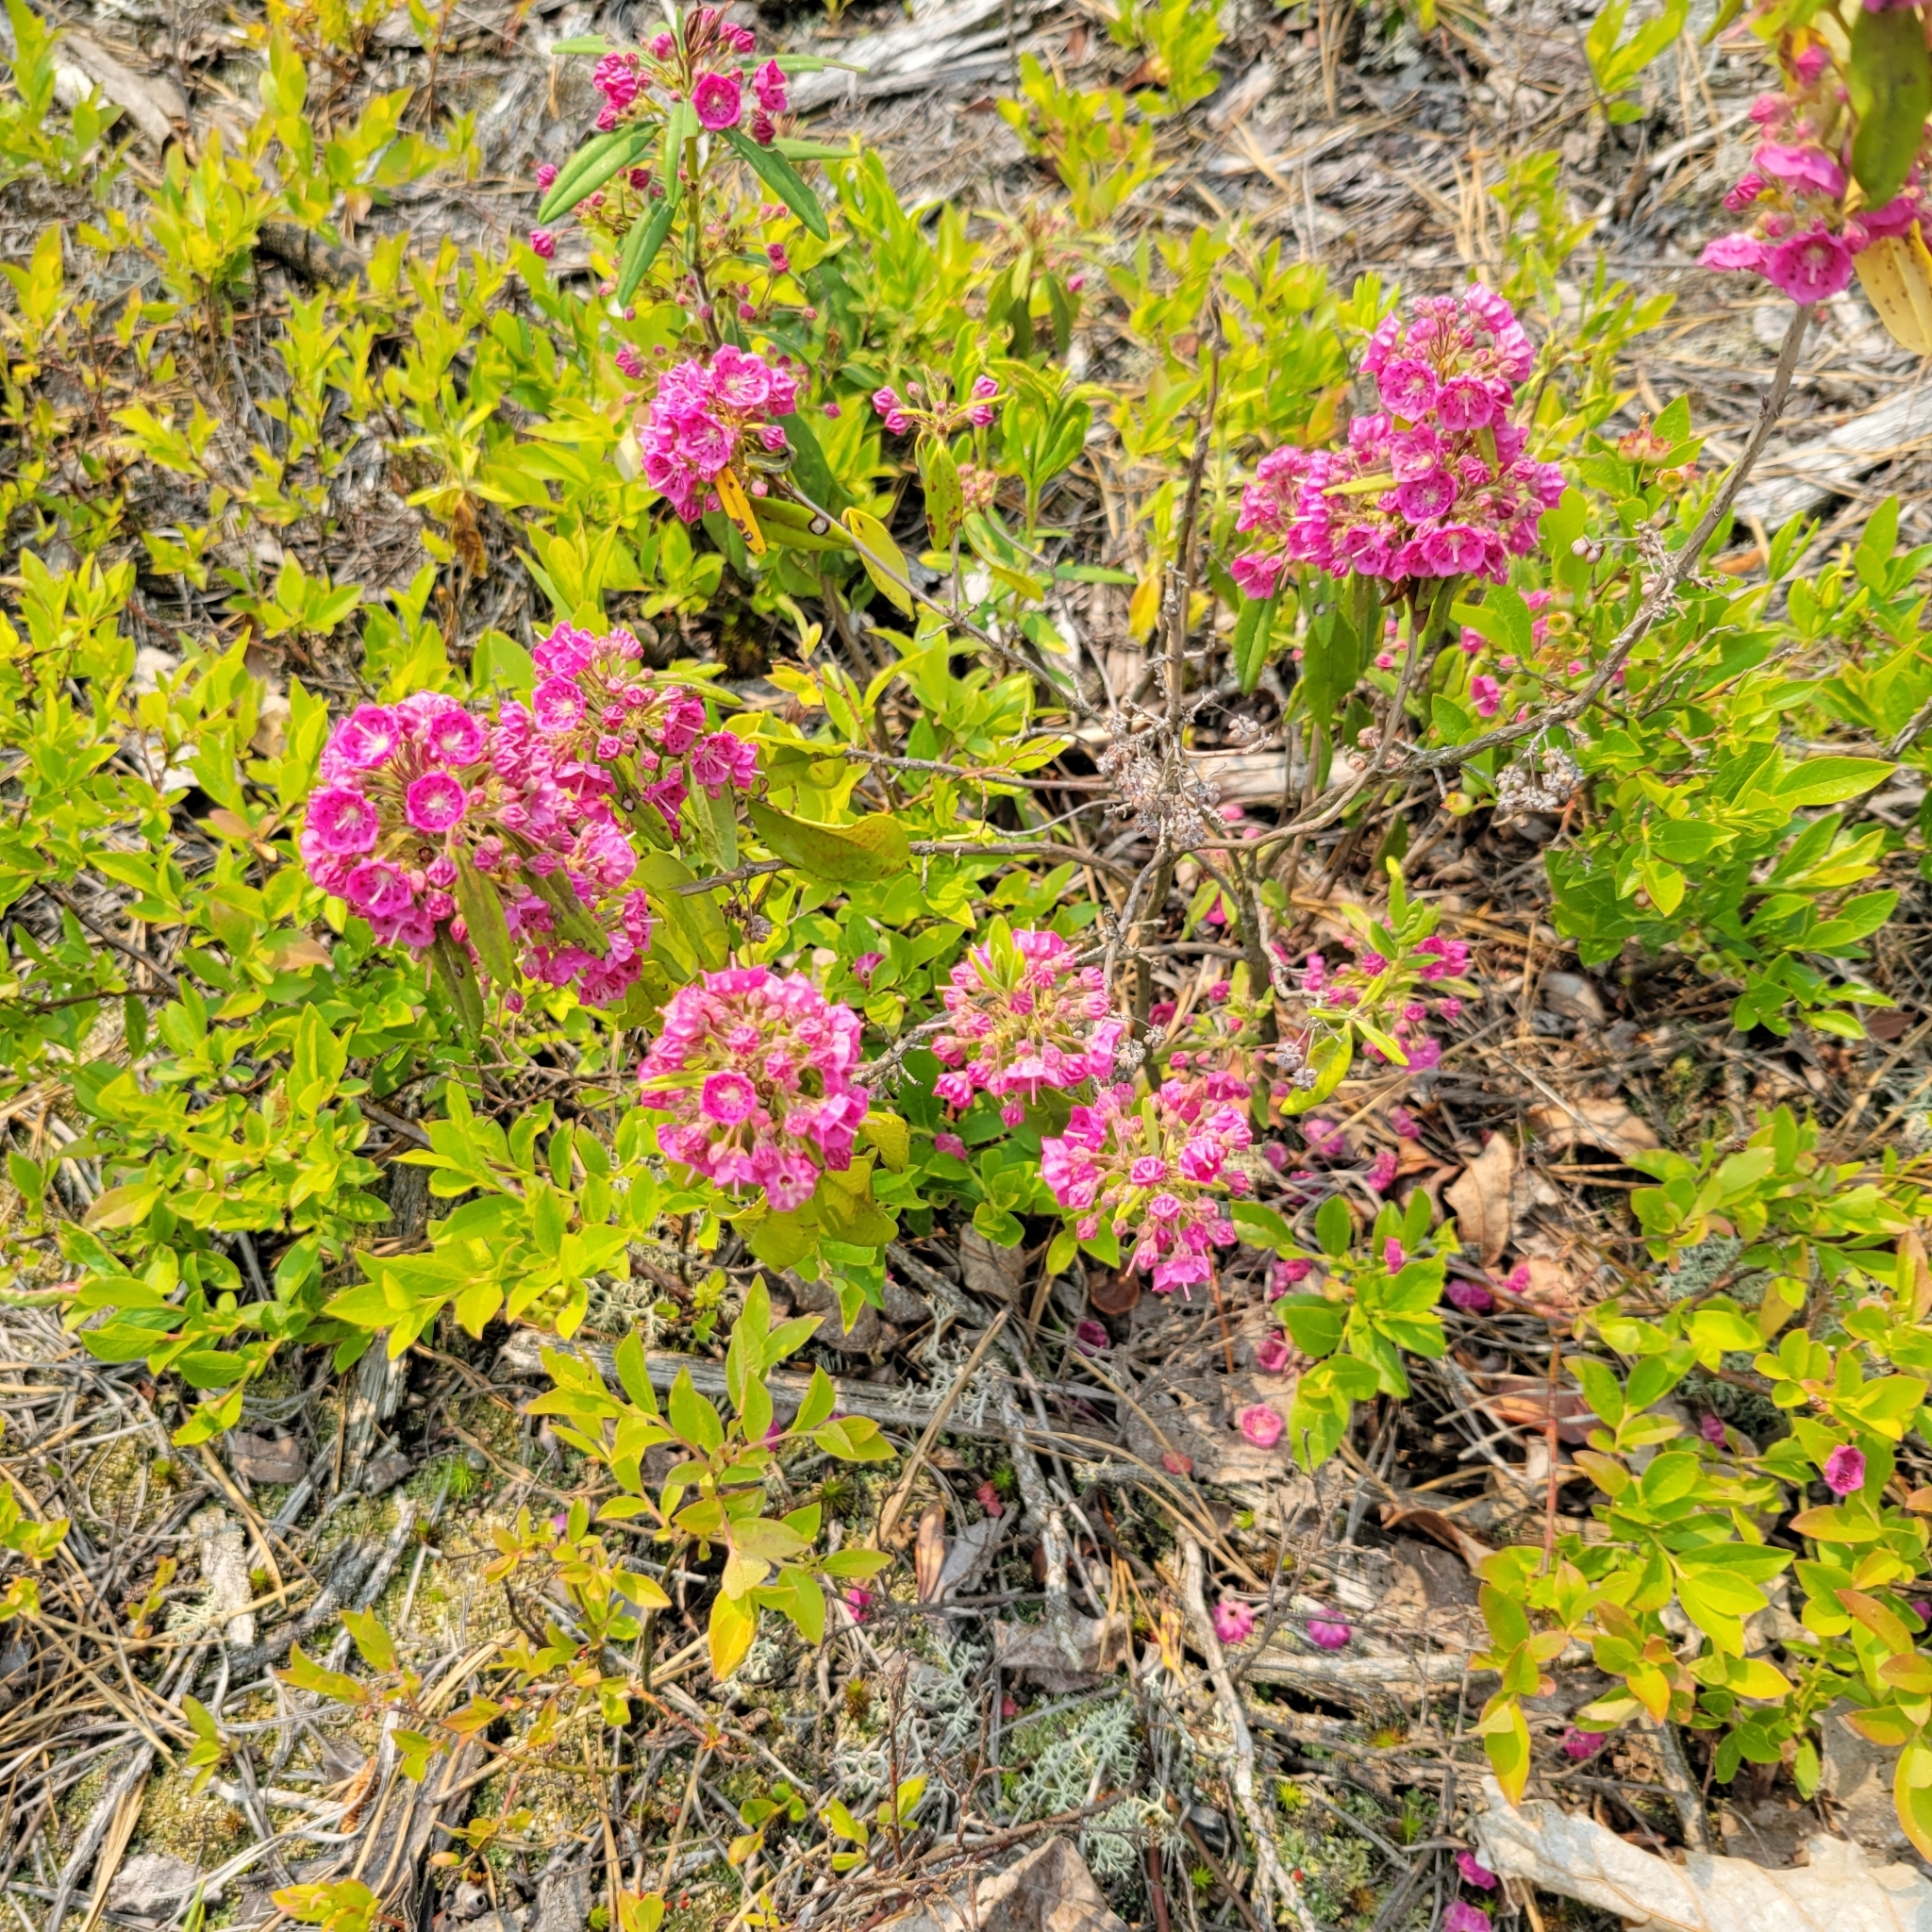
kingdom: Plantae
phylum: Tracheophyta
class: Magnoliopsida
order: Ericales
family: Ericaceae
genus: Kalmia
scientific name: Kalmia angustifolia
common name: Sheep-laurel
